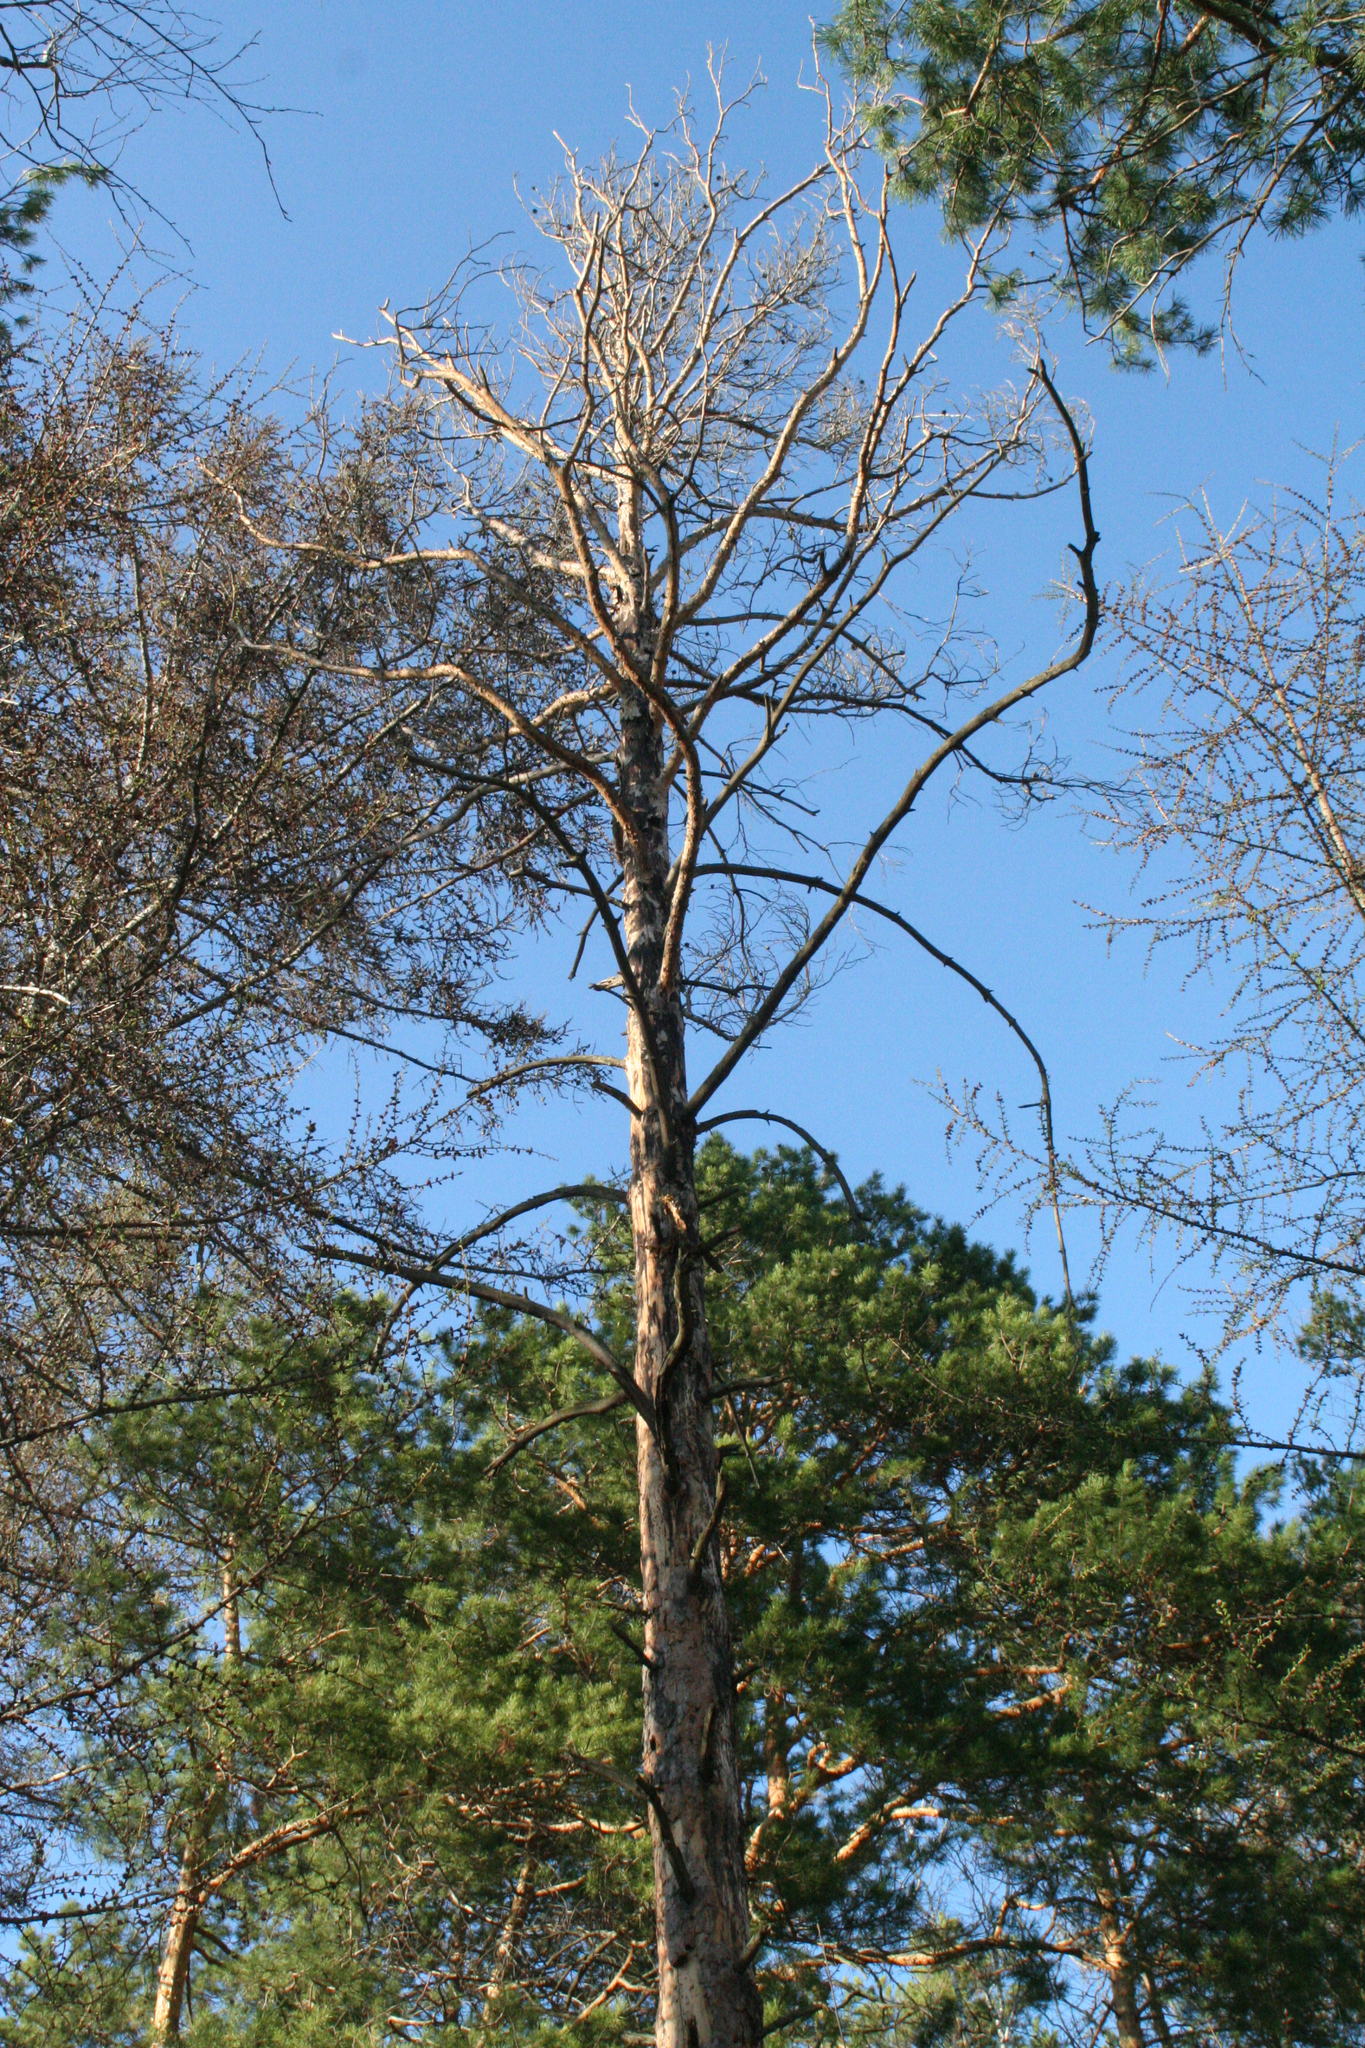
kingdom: Plantae
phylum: Tracheophyta
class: Pinopsida
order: Pinales
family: Pinaceae
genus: Pinus
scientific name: Pinus sylvestris
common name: Scots pine
